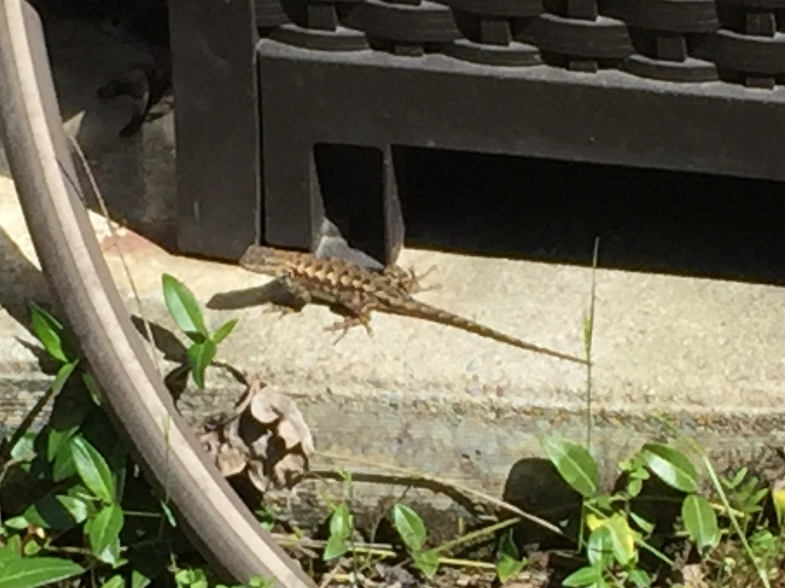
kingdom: Animalia
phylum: Chordata
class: Squamata
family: Phrynosomatidae
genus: Sceloporus
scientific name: Sceloporus occidentalis
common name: Western fence lizard
